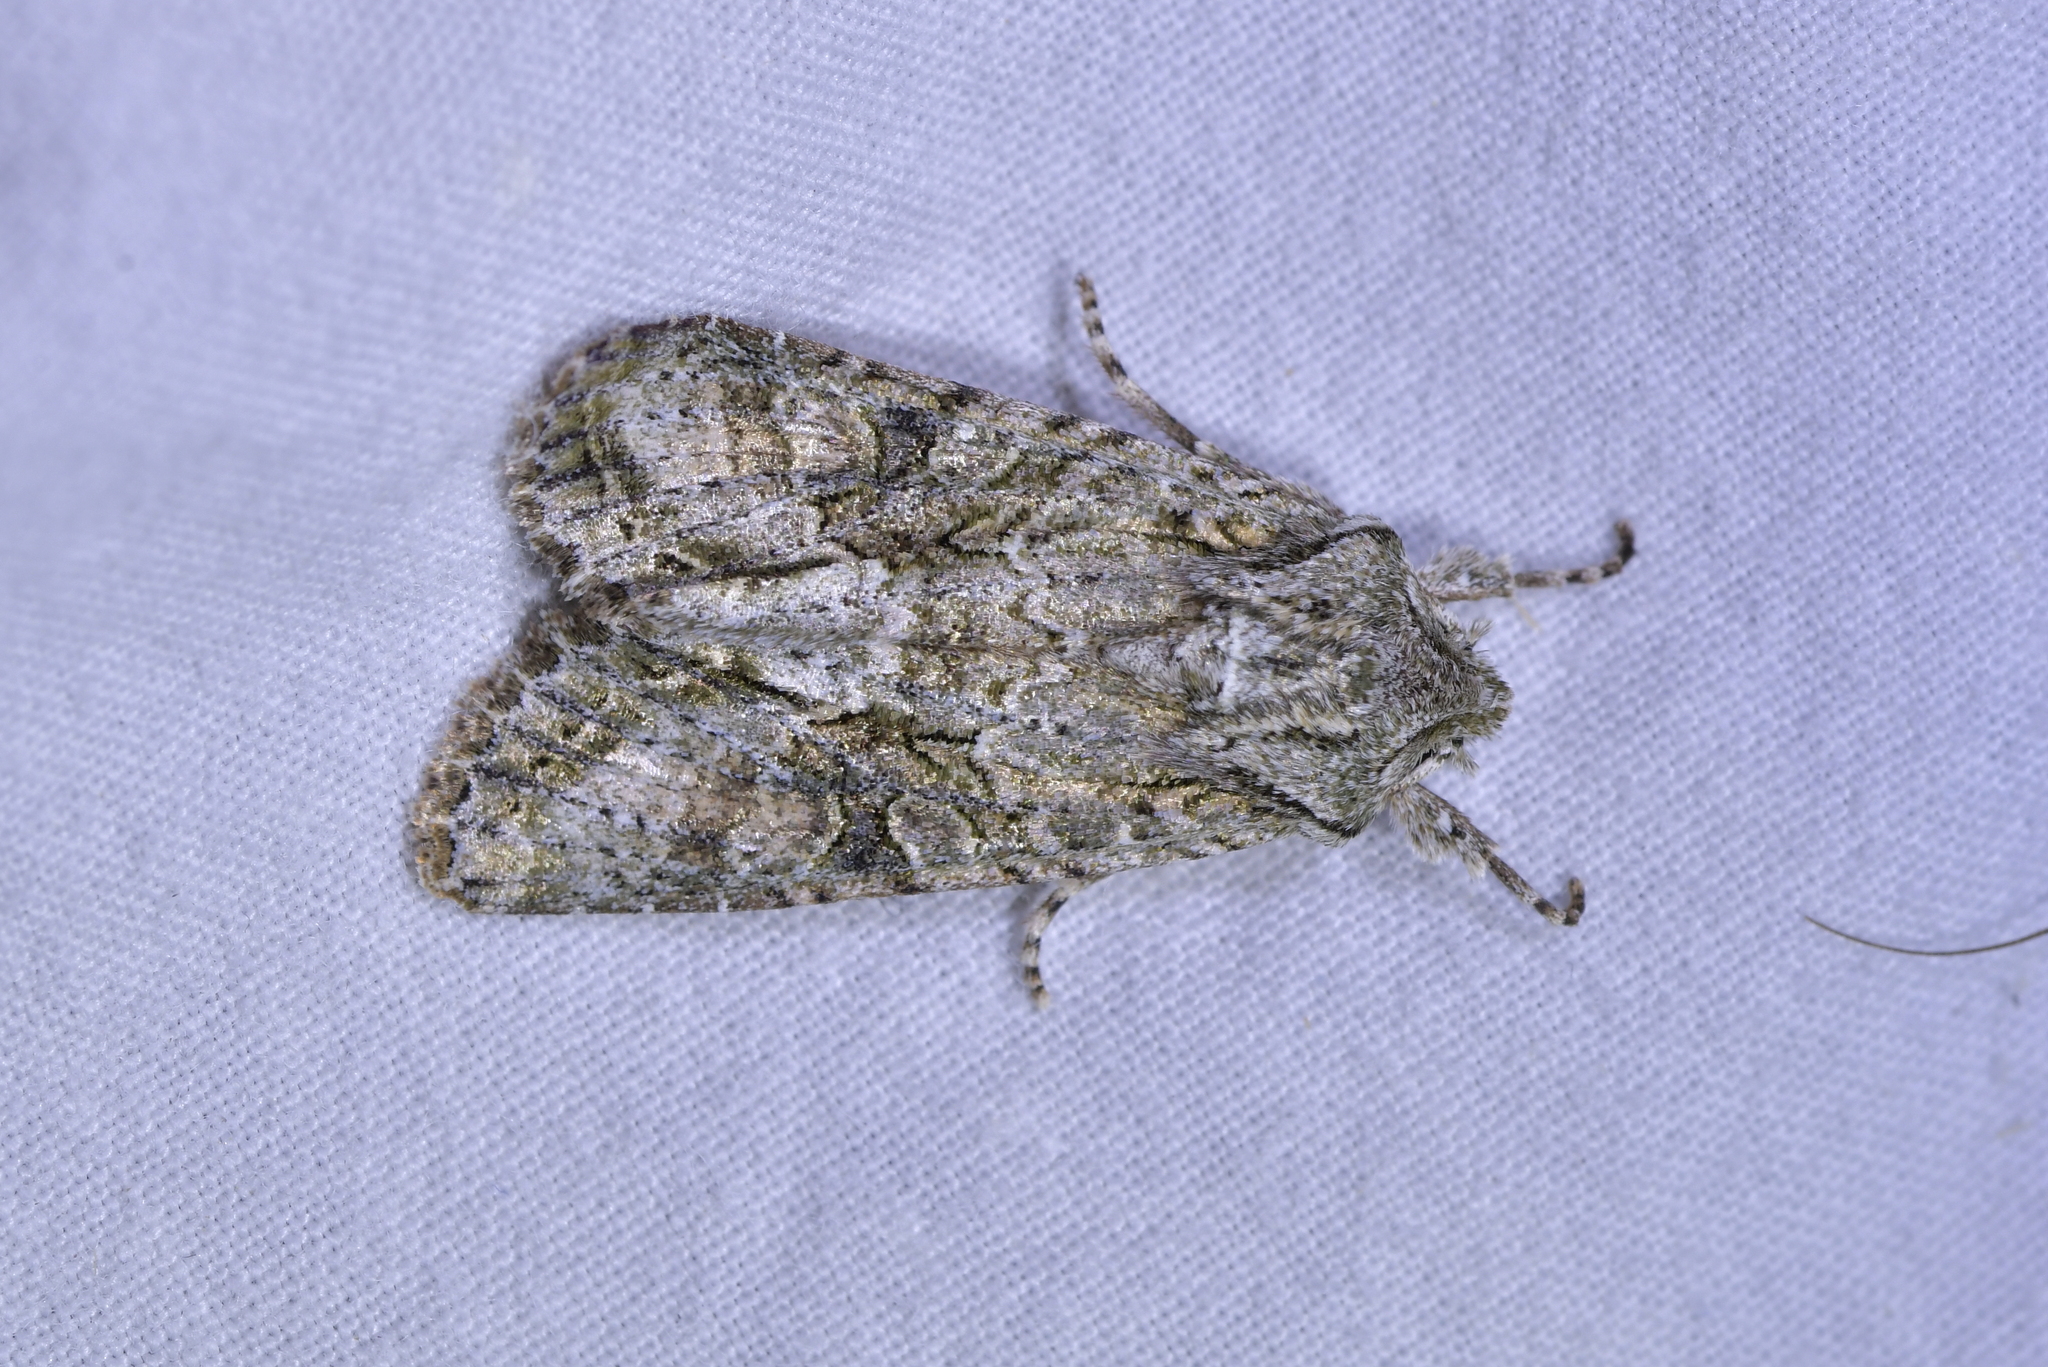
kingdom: Animalia
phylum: Arthropoda
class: Insecta
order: Lepidoptera
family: Noctuidae
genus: Ichneutica
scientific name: Ichneutica mutans
